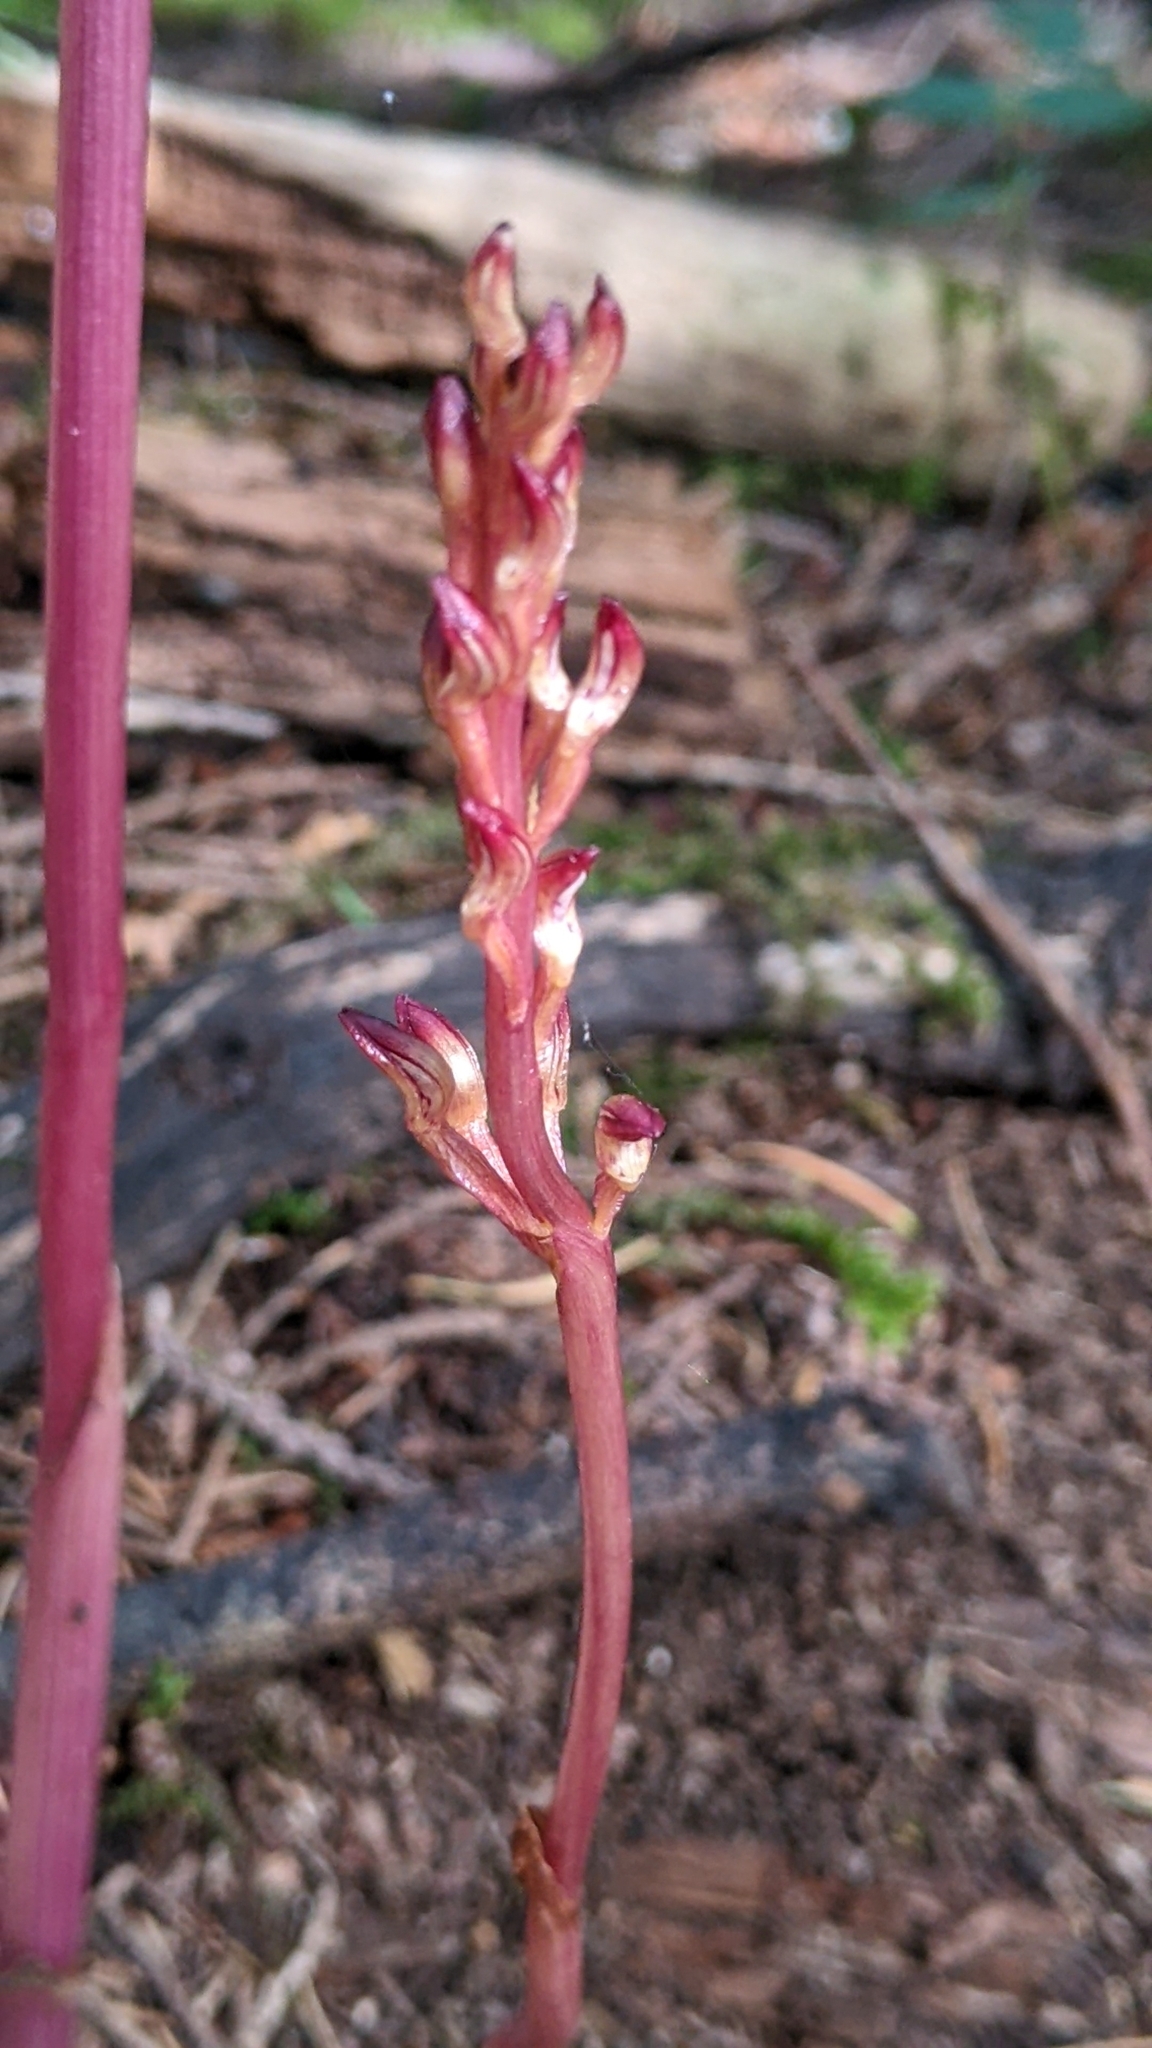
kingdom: Plantae
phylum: Tracheophyta
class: Liliopsida
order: Asparagales
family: Orchidaceae
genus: Corallorhiza
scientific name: Corallorhiza maculata
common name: Spotted coralroot
